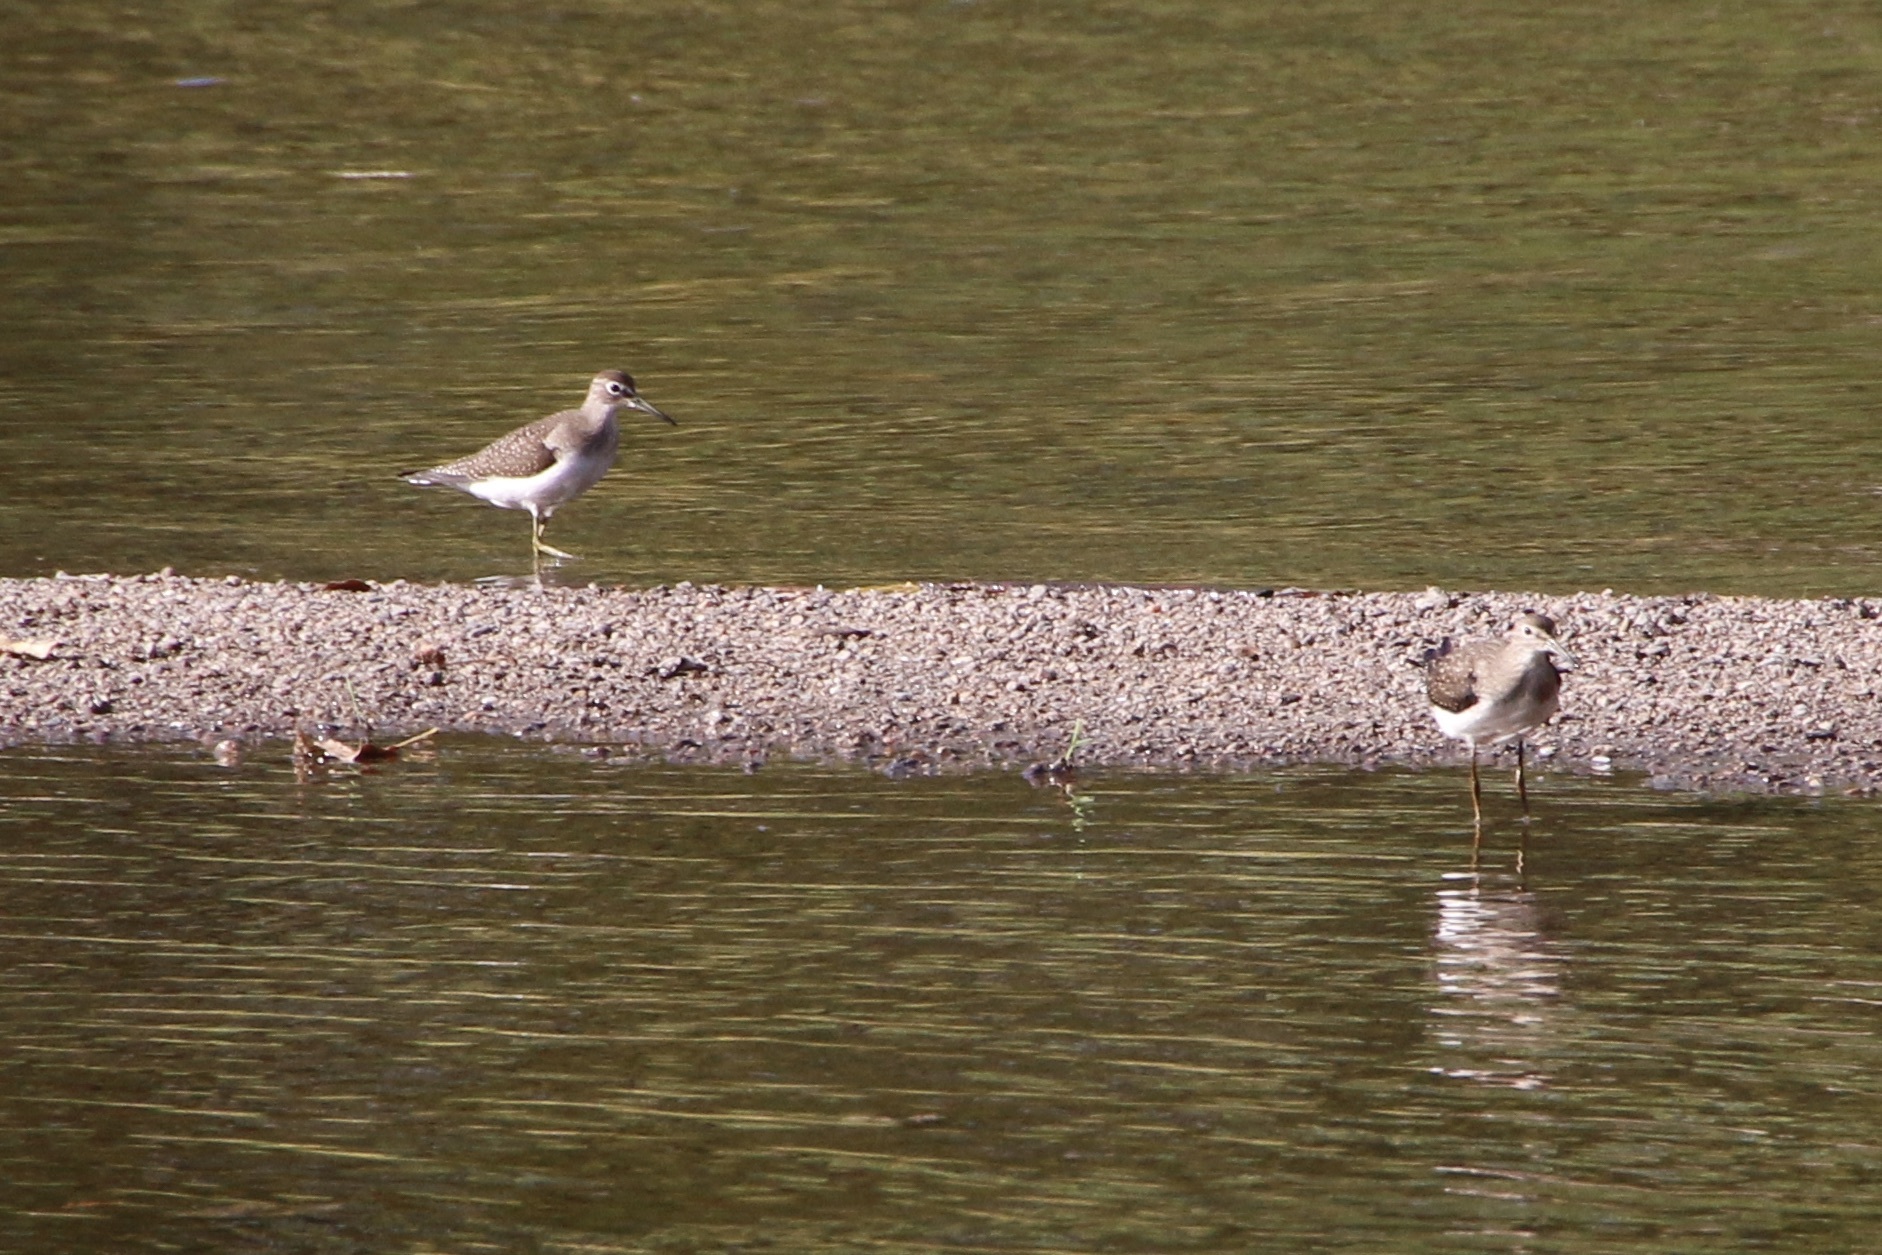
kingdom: Animalia
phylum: Chordata
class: Aves
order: Charadriiformes
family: Scolopacidae
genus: Tringa
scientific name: Tringa solitaria
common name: Solitary sandpiper
